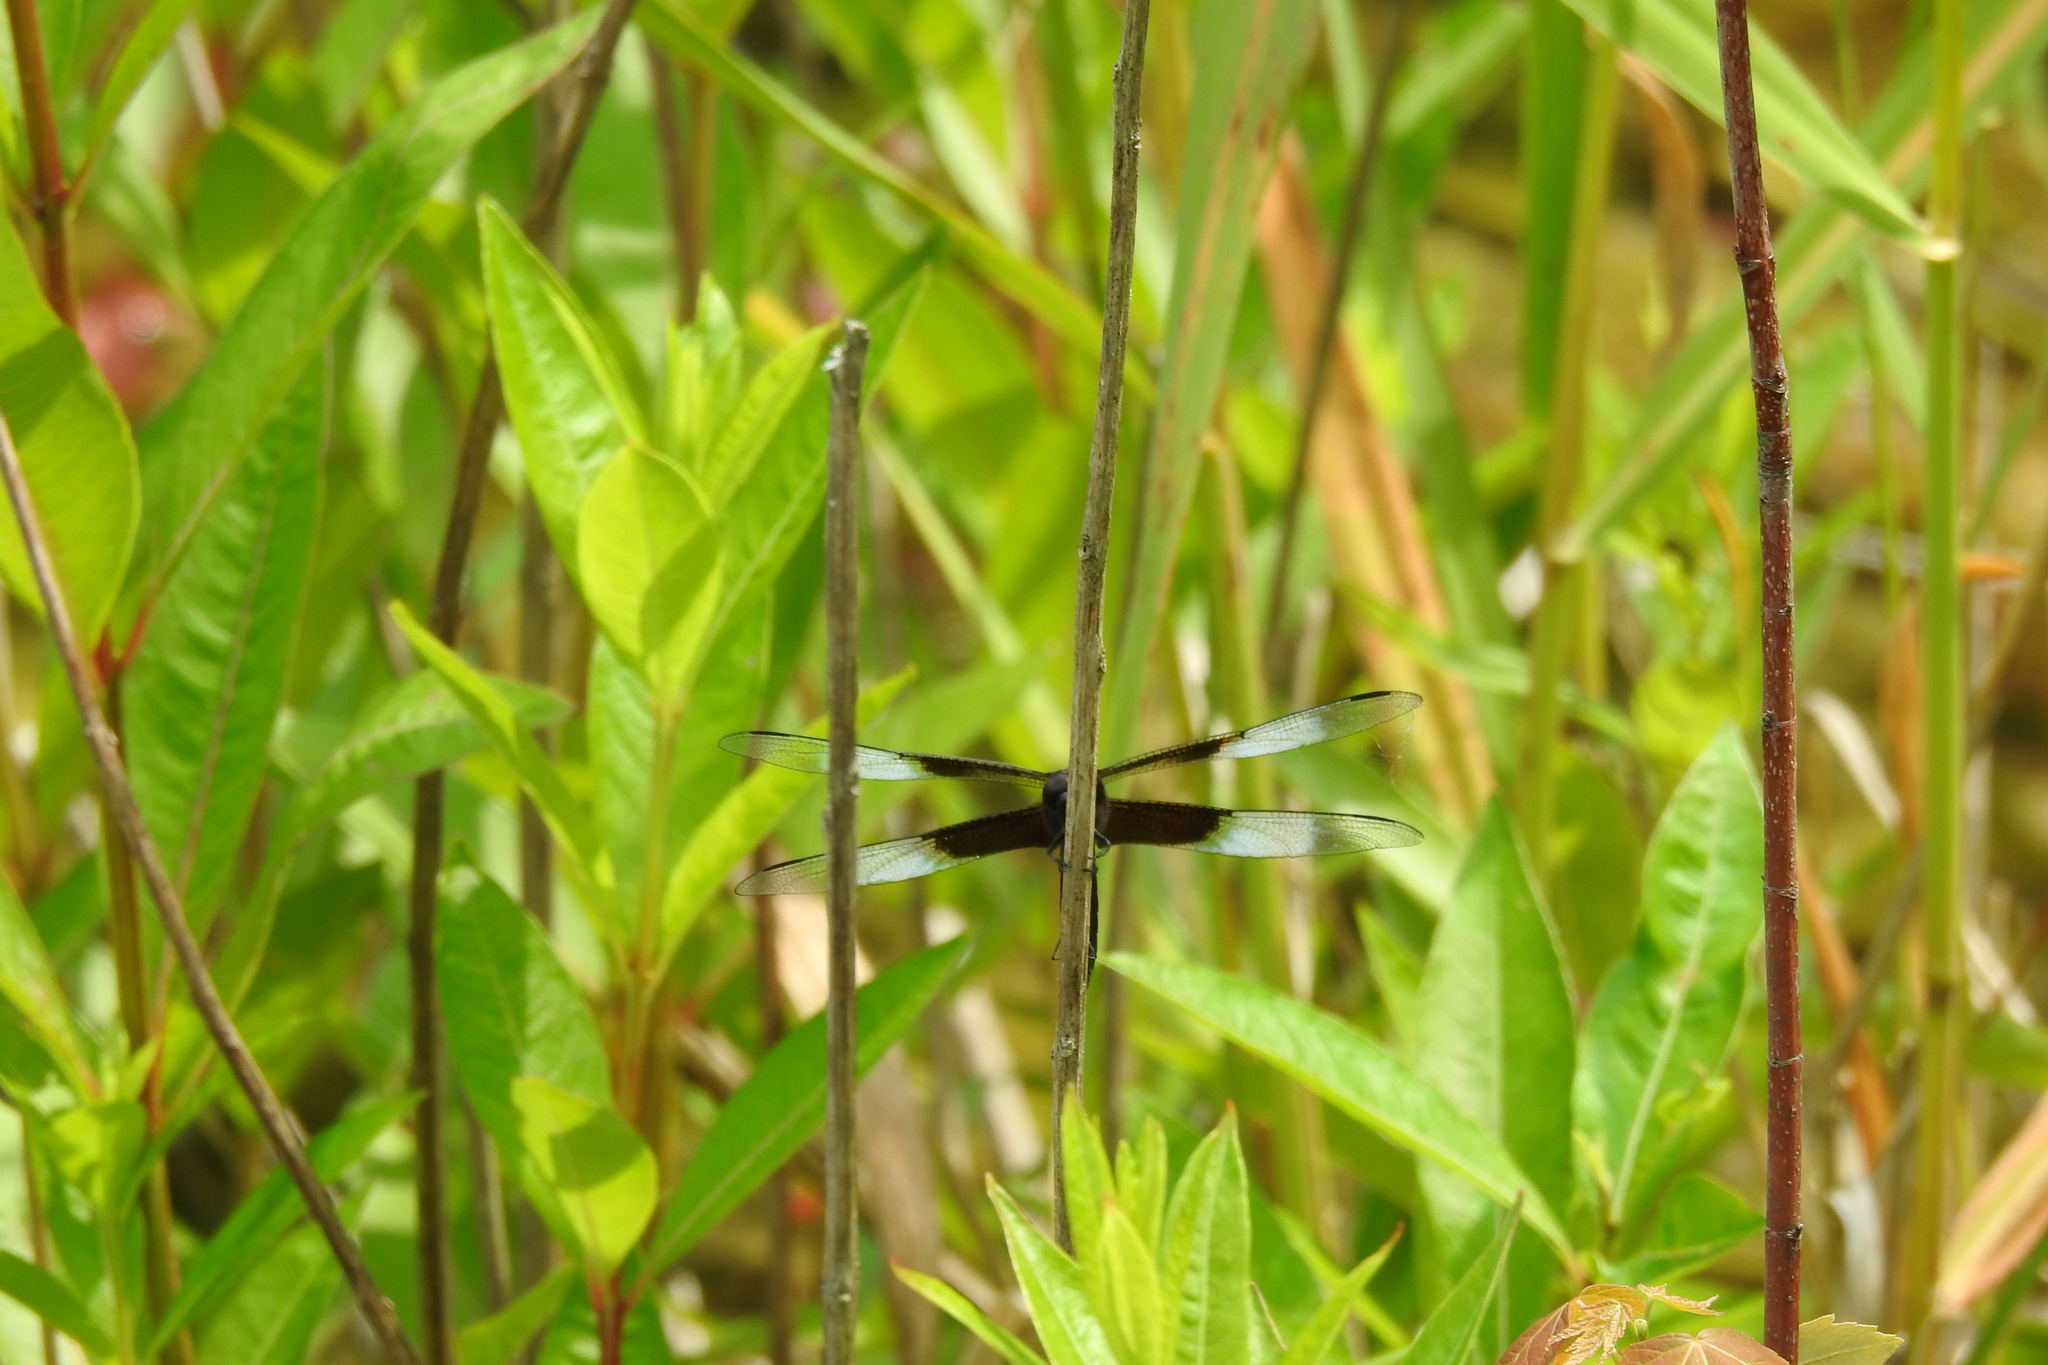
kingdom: Animalia
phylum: Arthropoda
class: Insecta
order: Odonata
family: Libellulidae
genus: Libellula
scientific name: Libellula luctuosa
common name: Widow skimmer
